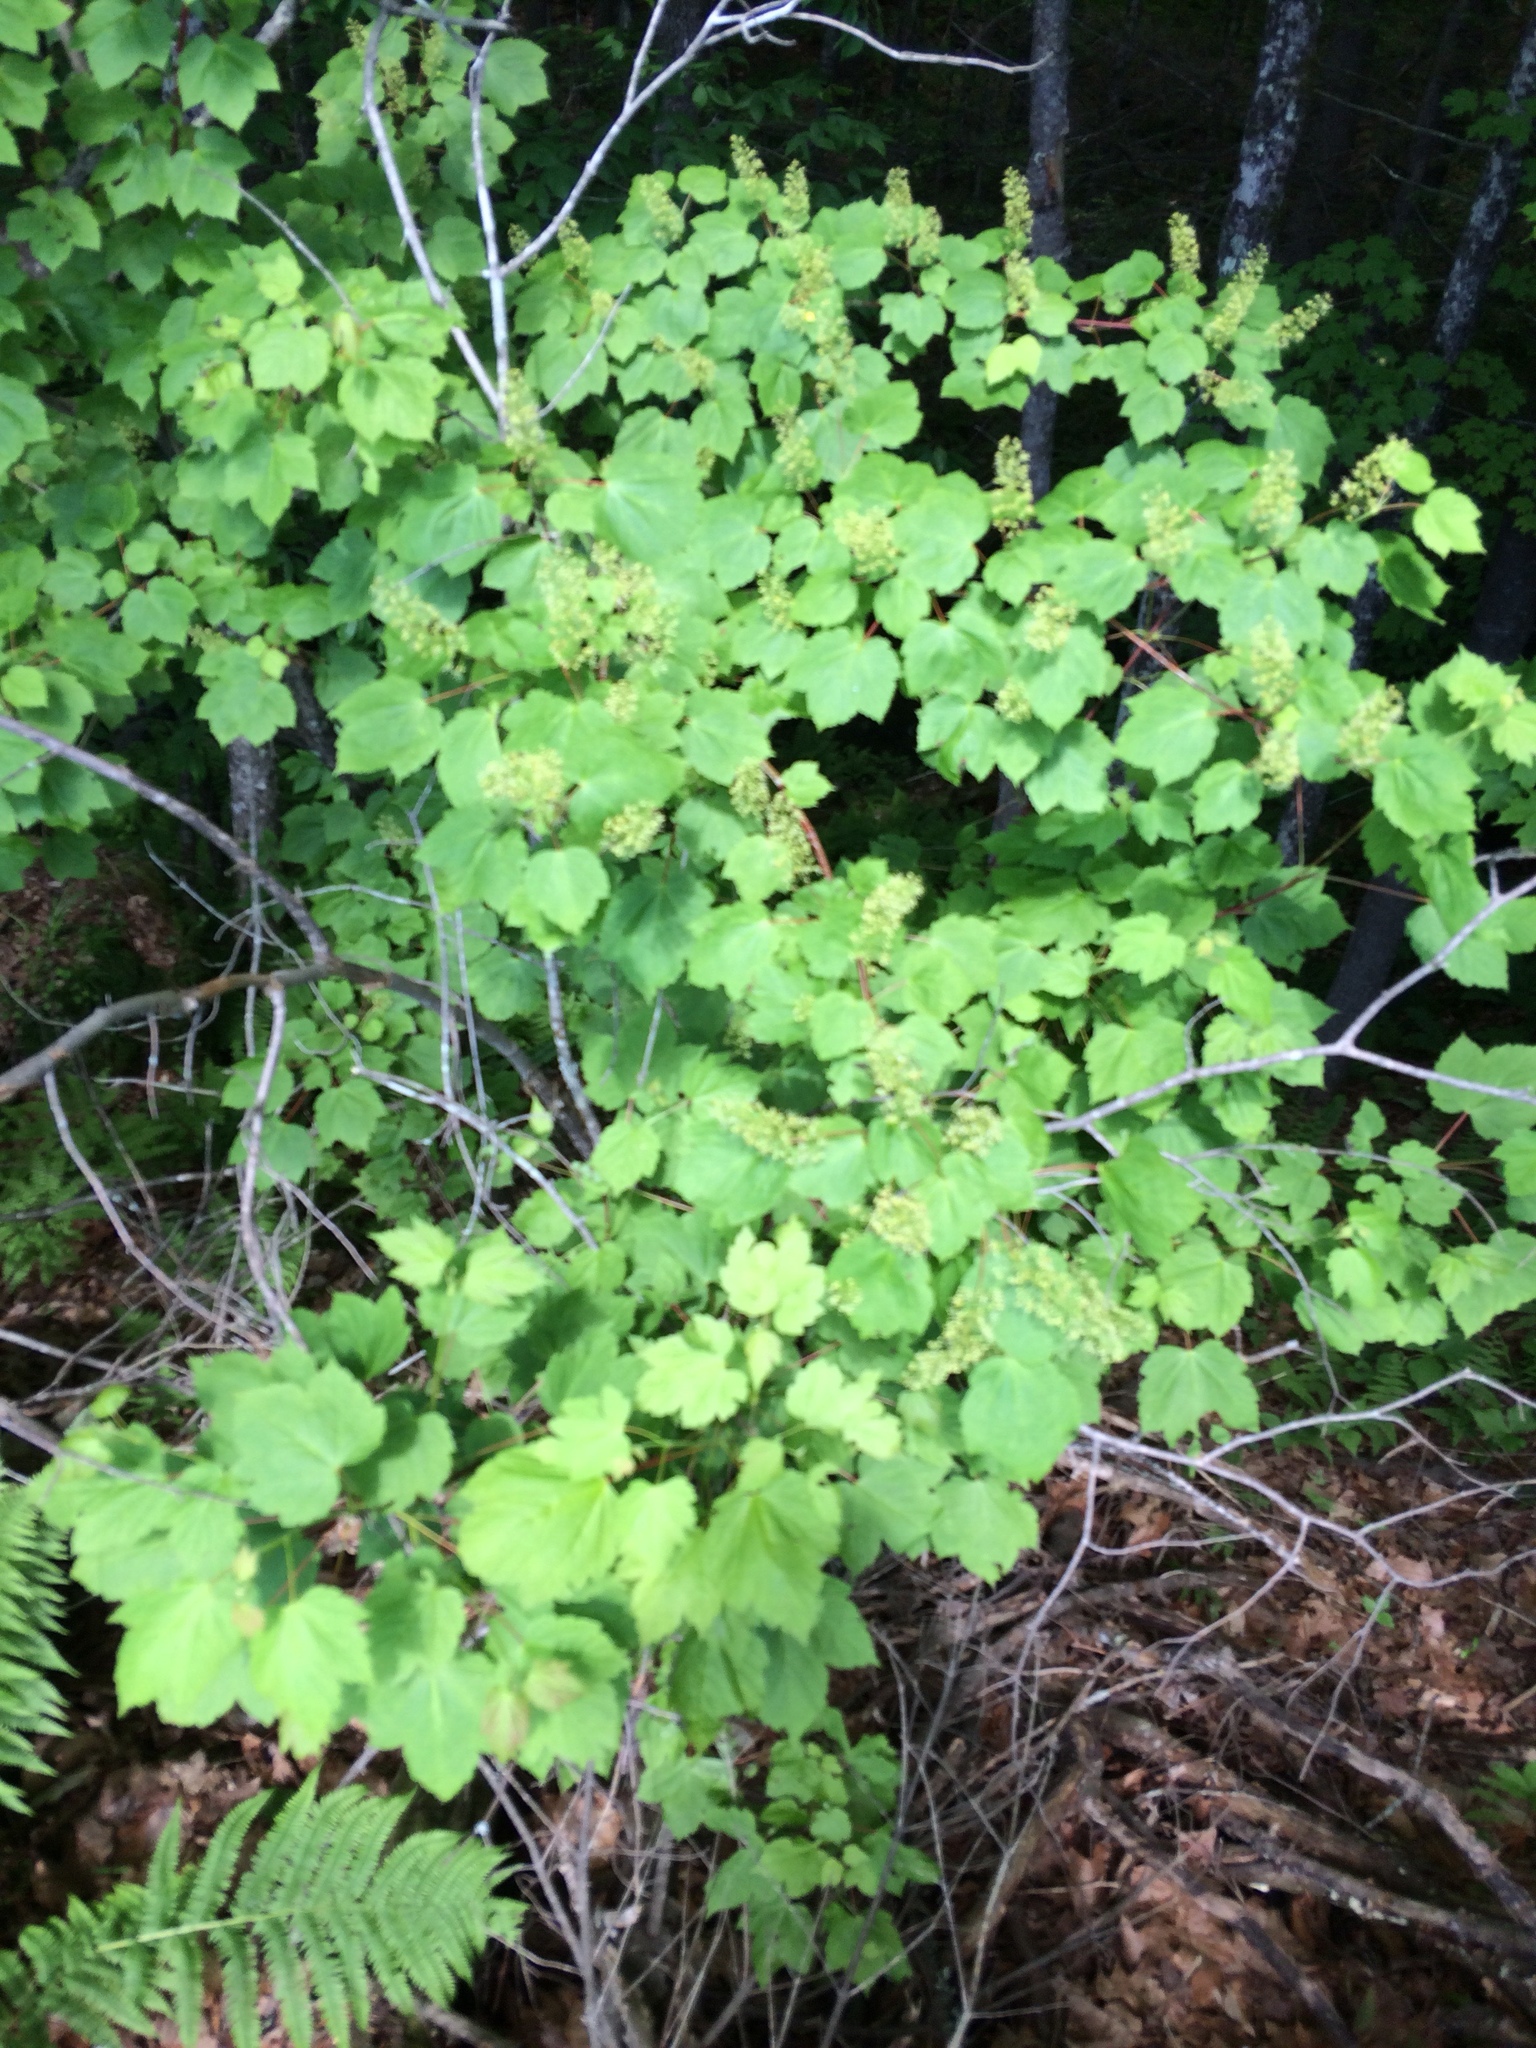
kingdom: Plantae
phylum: Tracheophyta
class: Magnoliopsida
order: Sapindales
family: Sapindaceae
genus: Acer
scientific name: Acer spicatum
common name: Mountain maple
